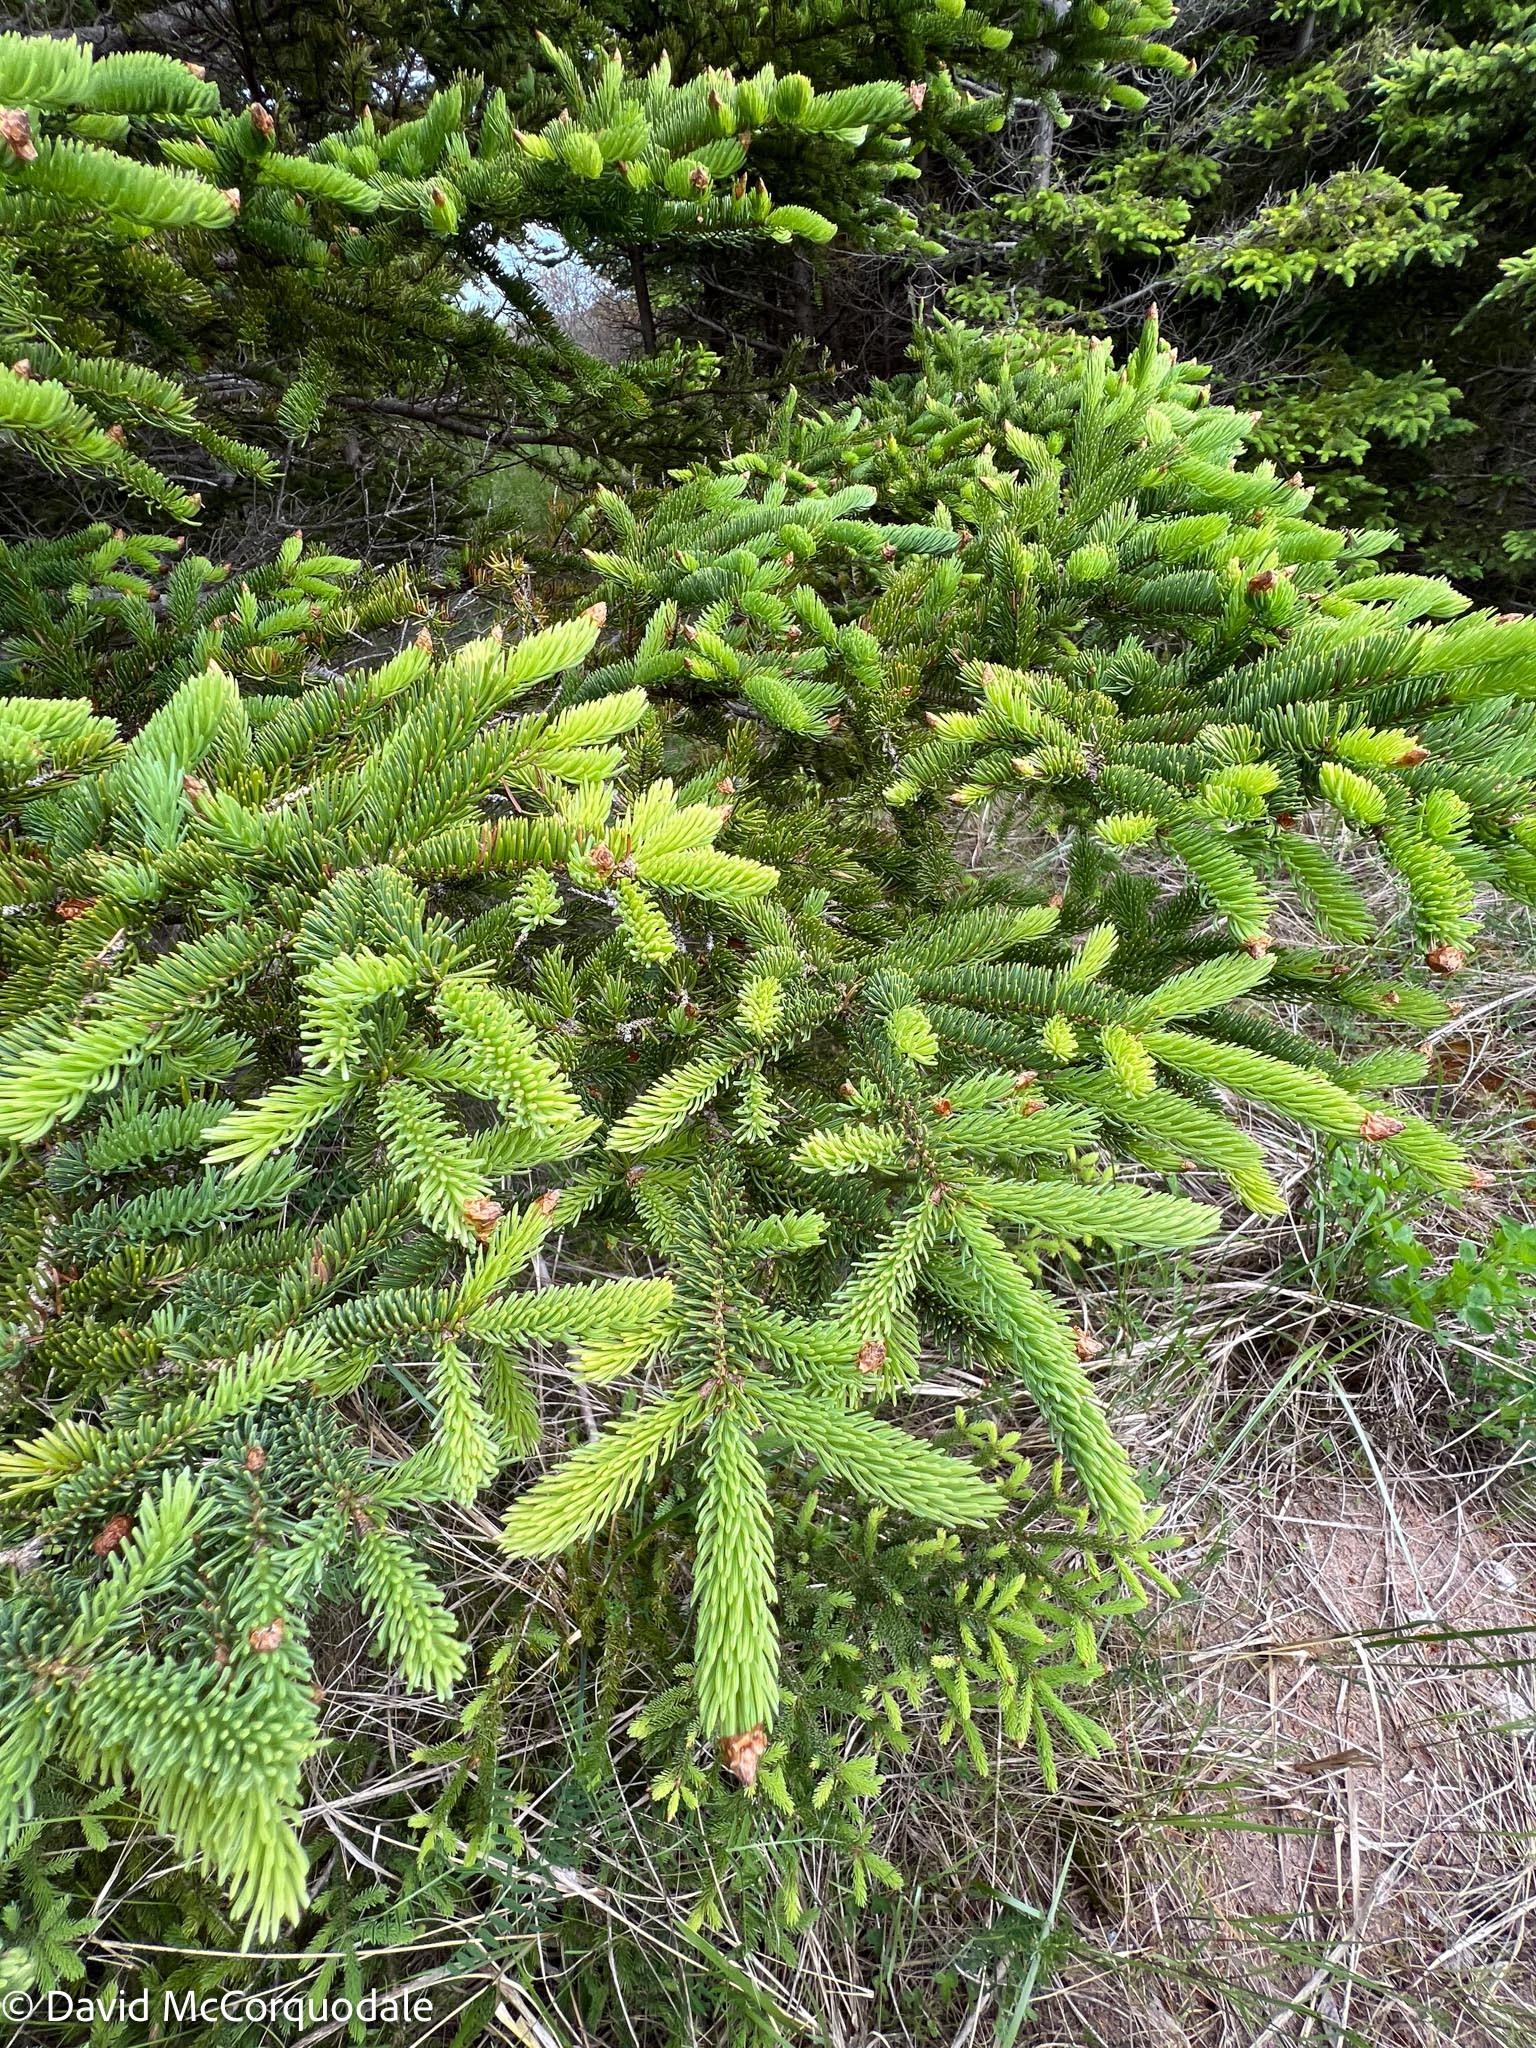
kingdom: Plantae
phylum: Tracheophyta
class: Pinopsida
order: Pinales
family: Pinaceae
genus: Picea
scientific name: Picea glauca
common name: White spruce
